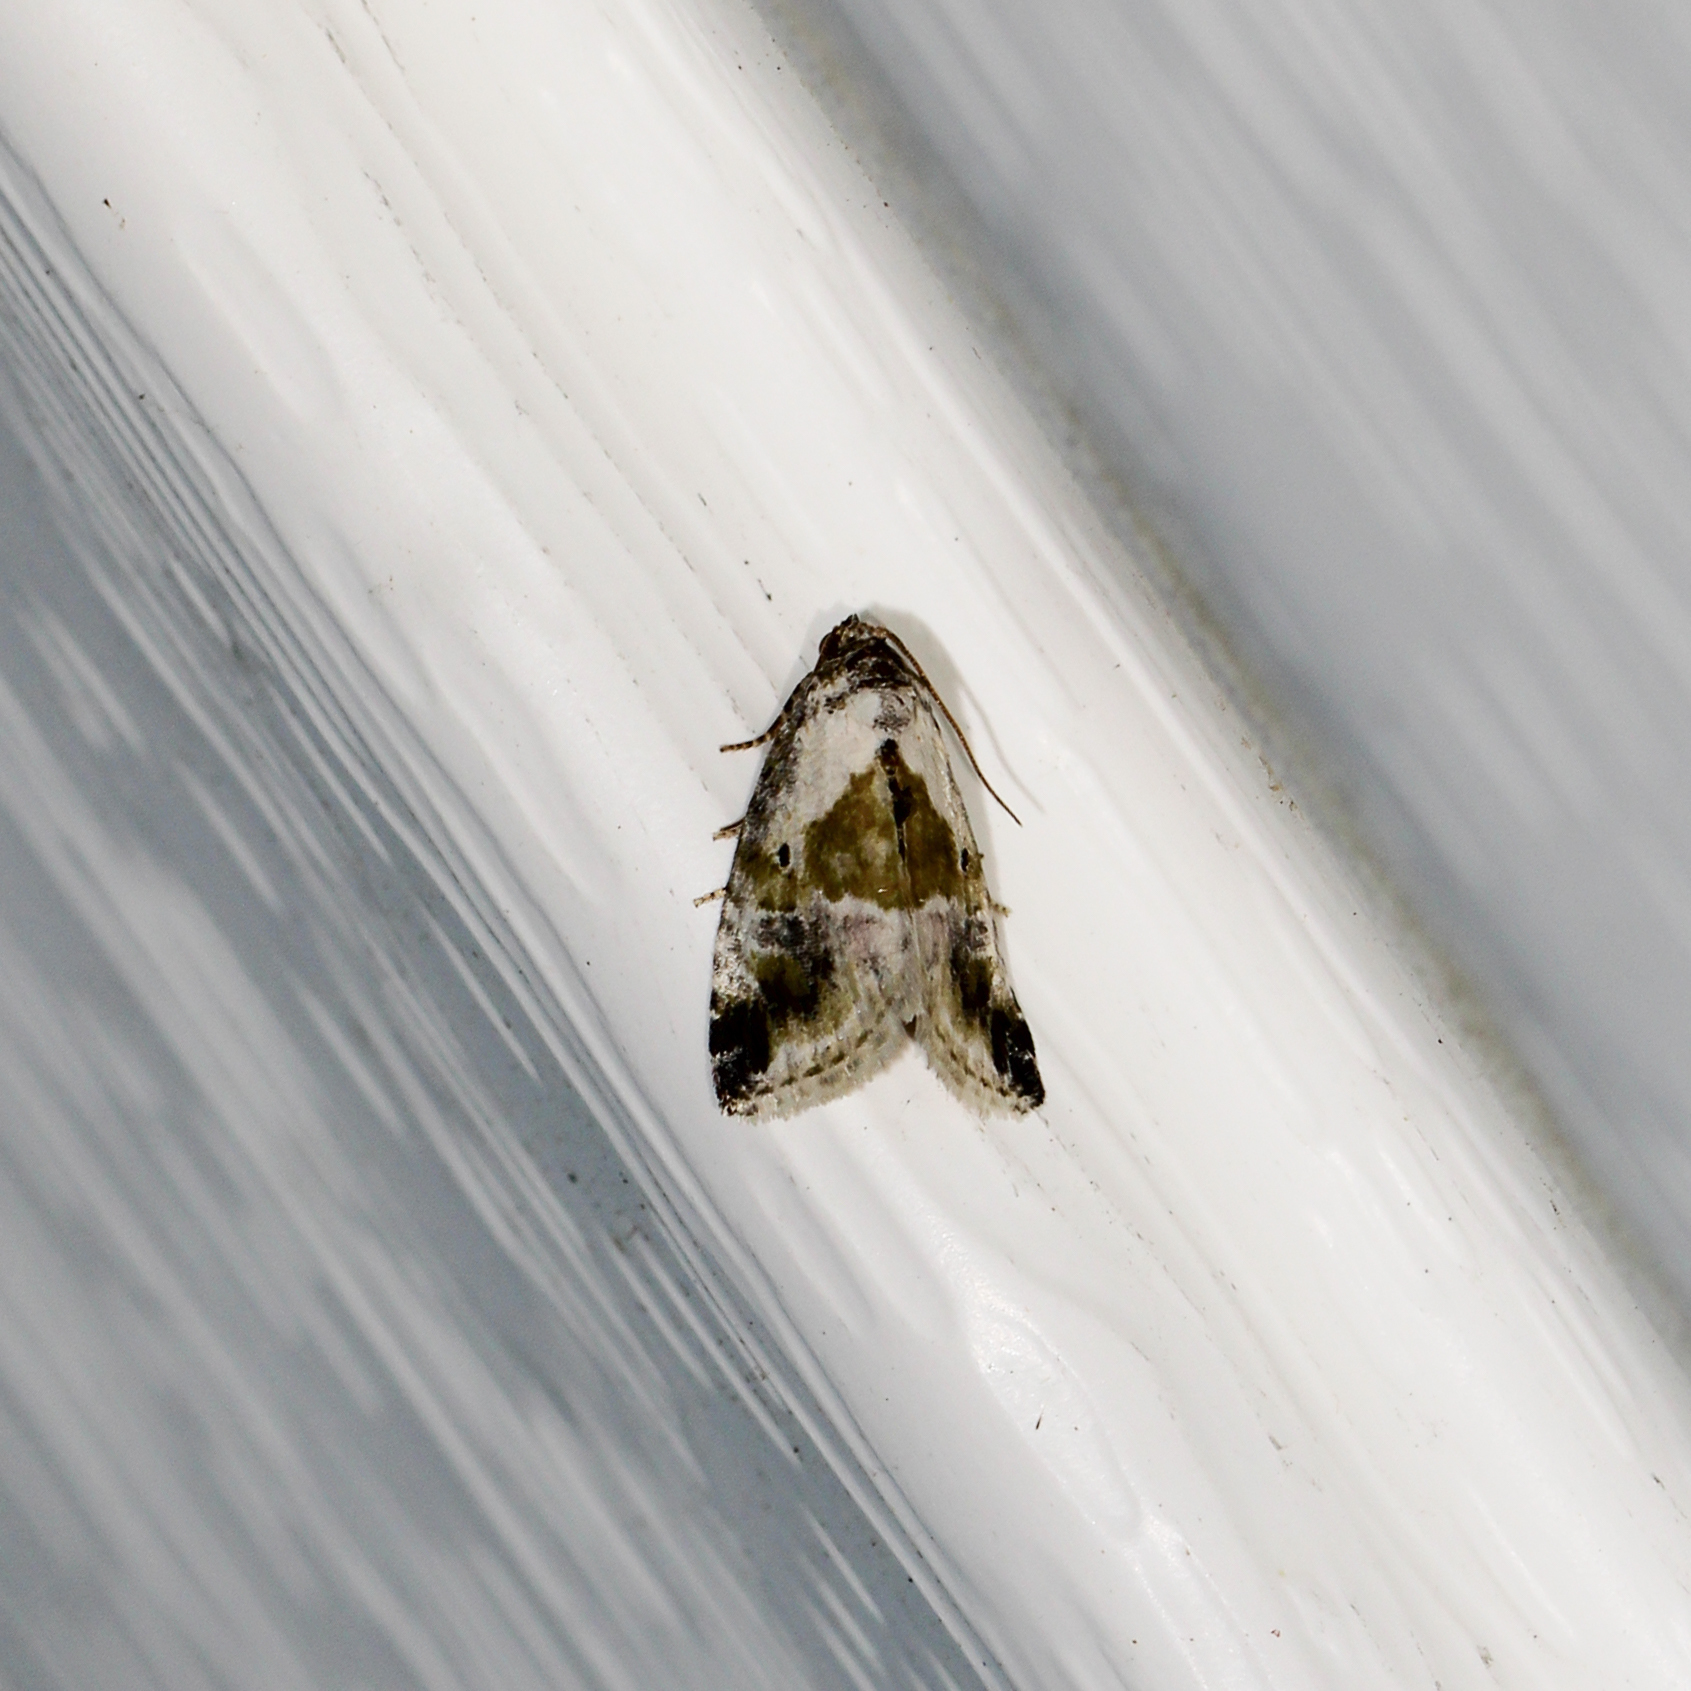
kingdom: Animalia
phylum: Arthropoda
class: Insecta
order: Lepidoptera
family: Noctuidae
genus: Maliattha
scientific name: Maliattha synochitis
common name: Black-dotted glyph
